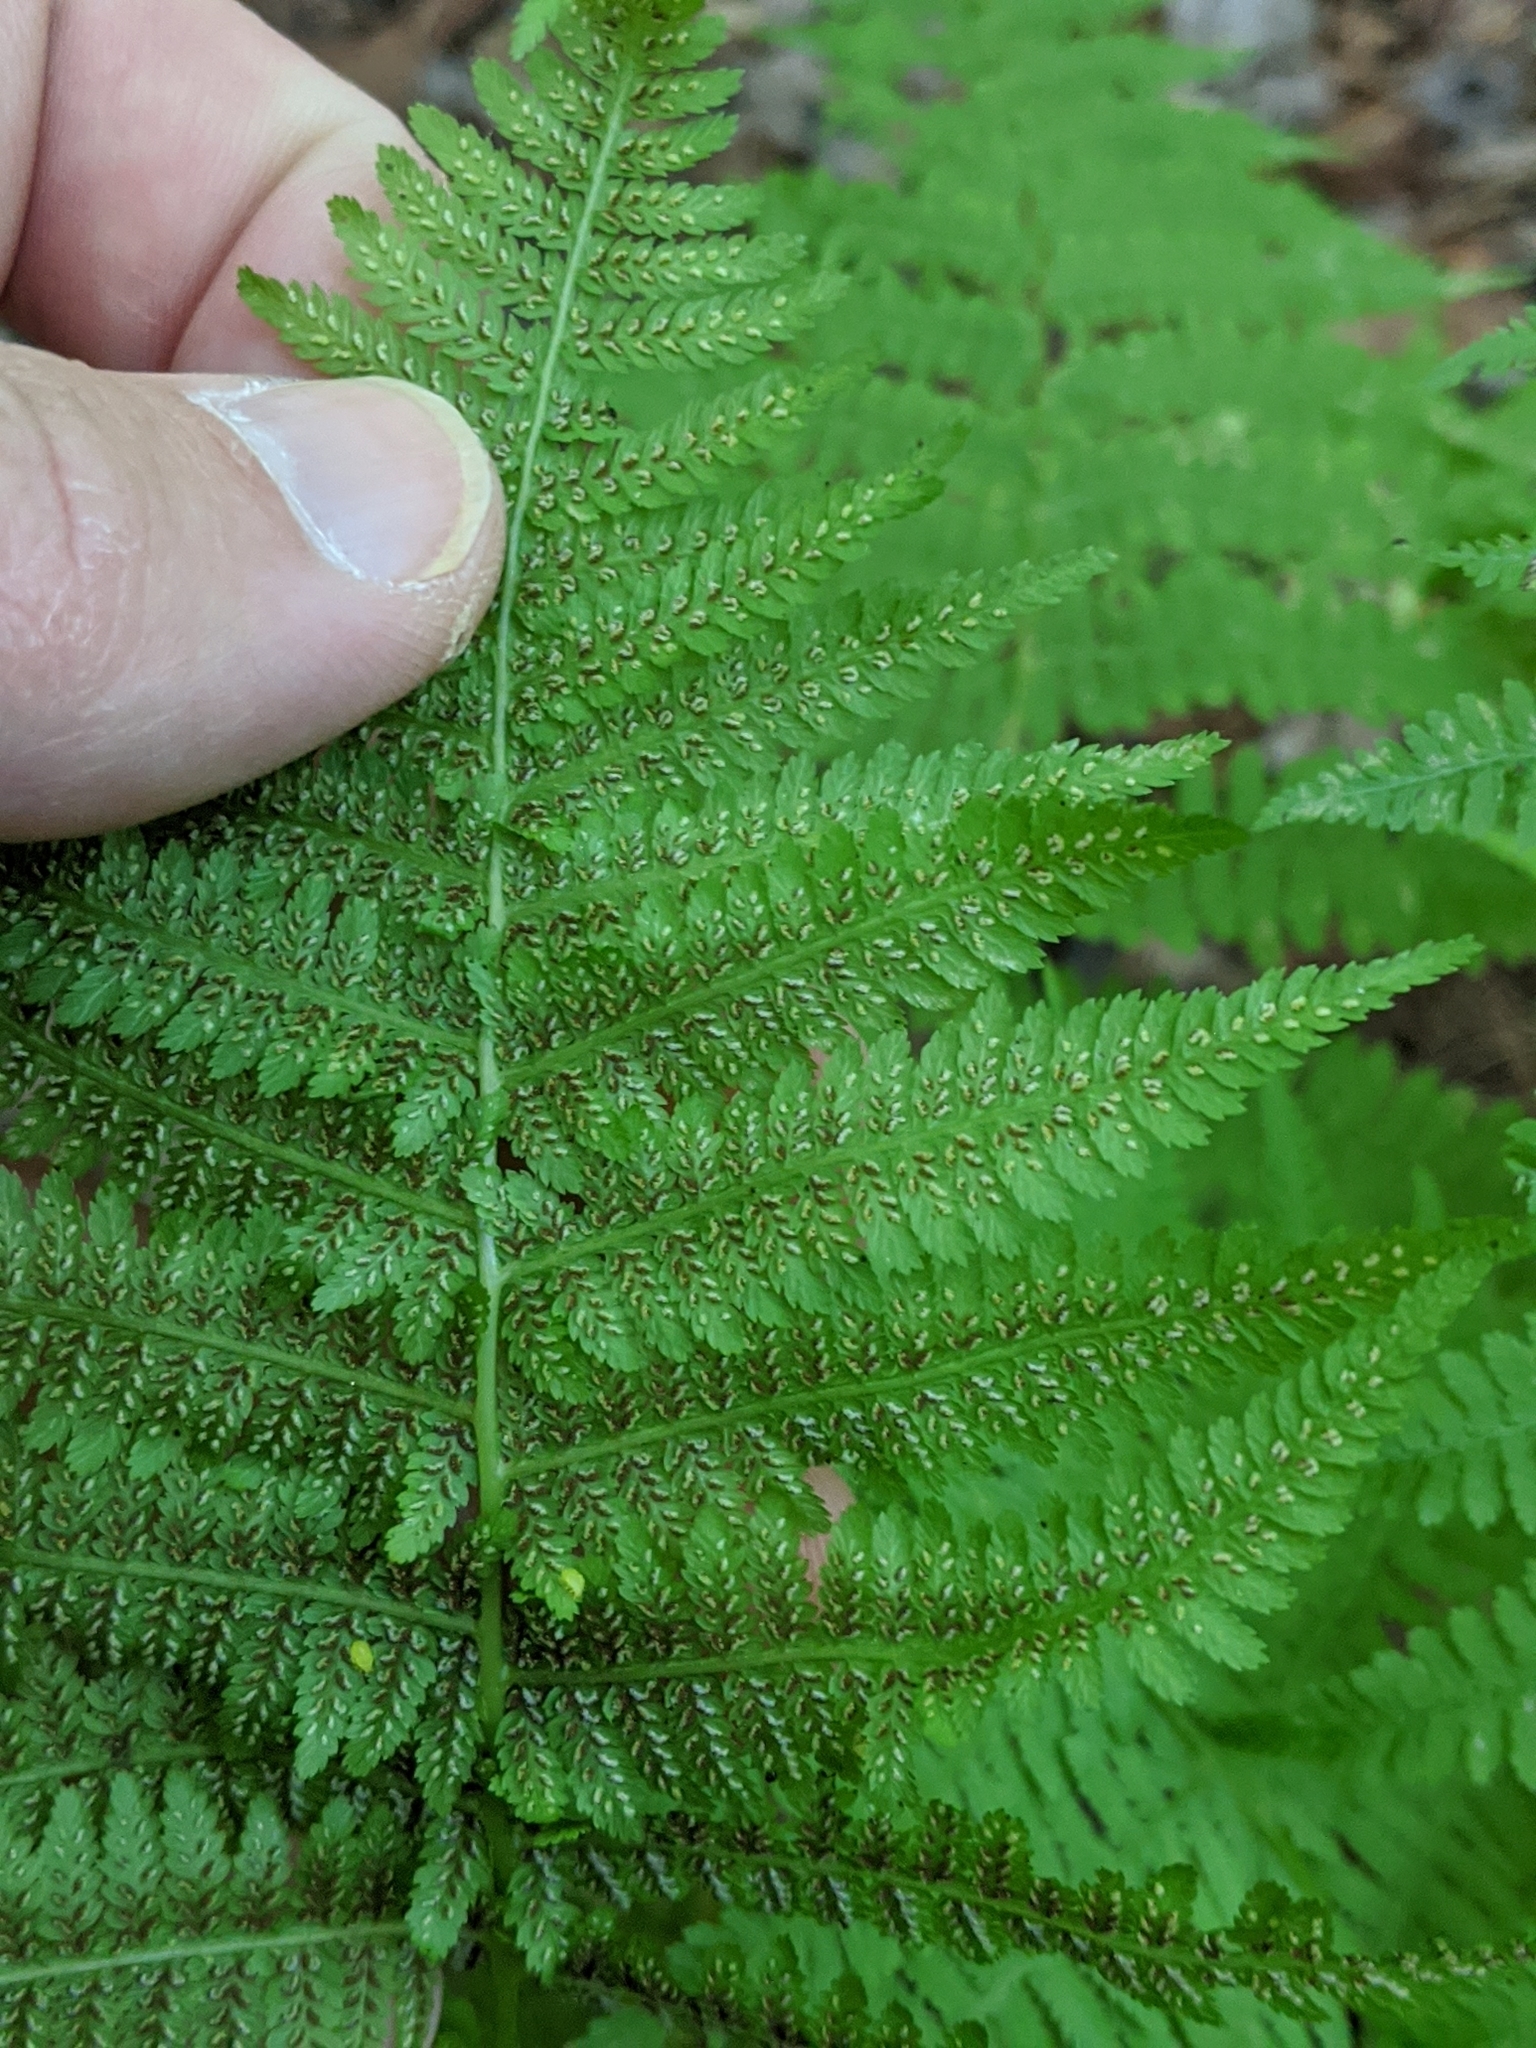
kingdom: Plantae
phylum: Tracheophyta
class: Polypodiopsida
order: Polypodiales
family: Athyriaceae
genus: Athyrium
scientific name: Athyrium angustum
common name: Northern lady fern
